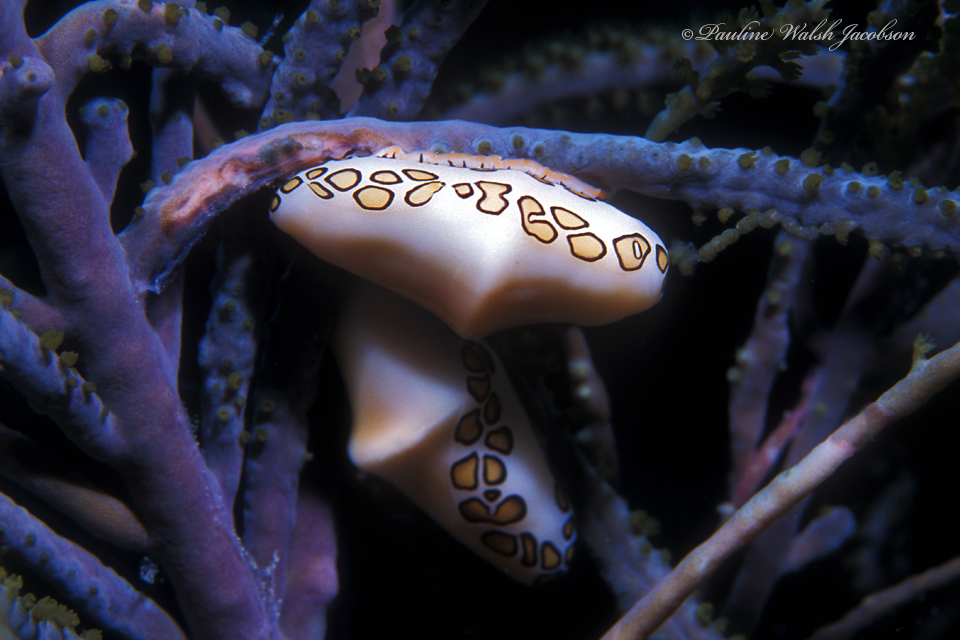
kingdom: Animalia
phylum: Mollusca
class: Gastropoda
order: Littorinimorpha
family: Ovulidae
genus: Cyphoma
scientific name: Cyphoma gibbosum
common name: Flamingo tongue
